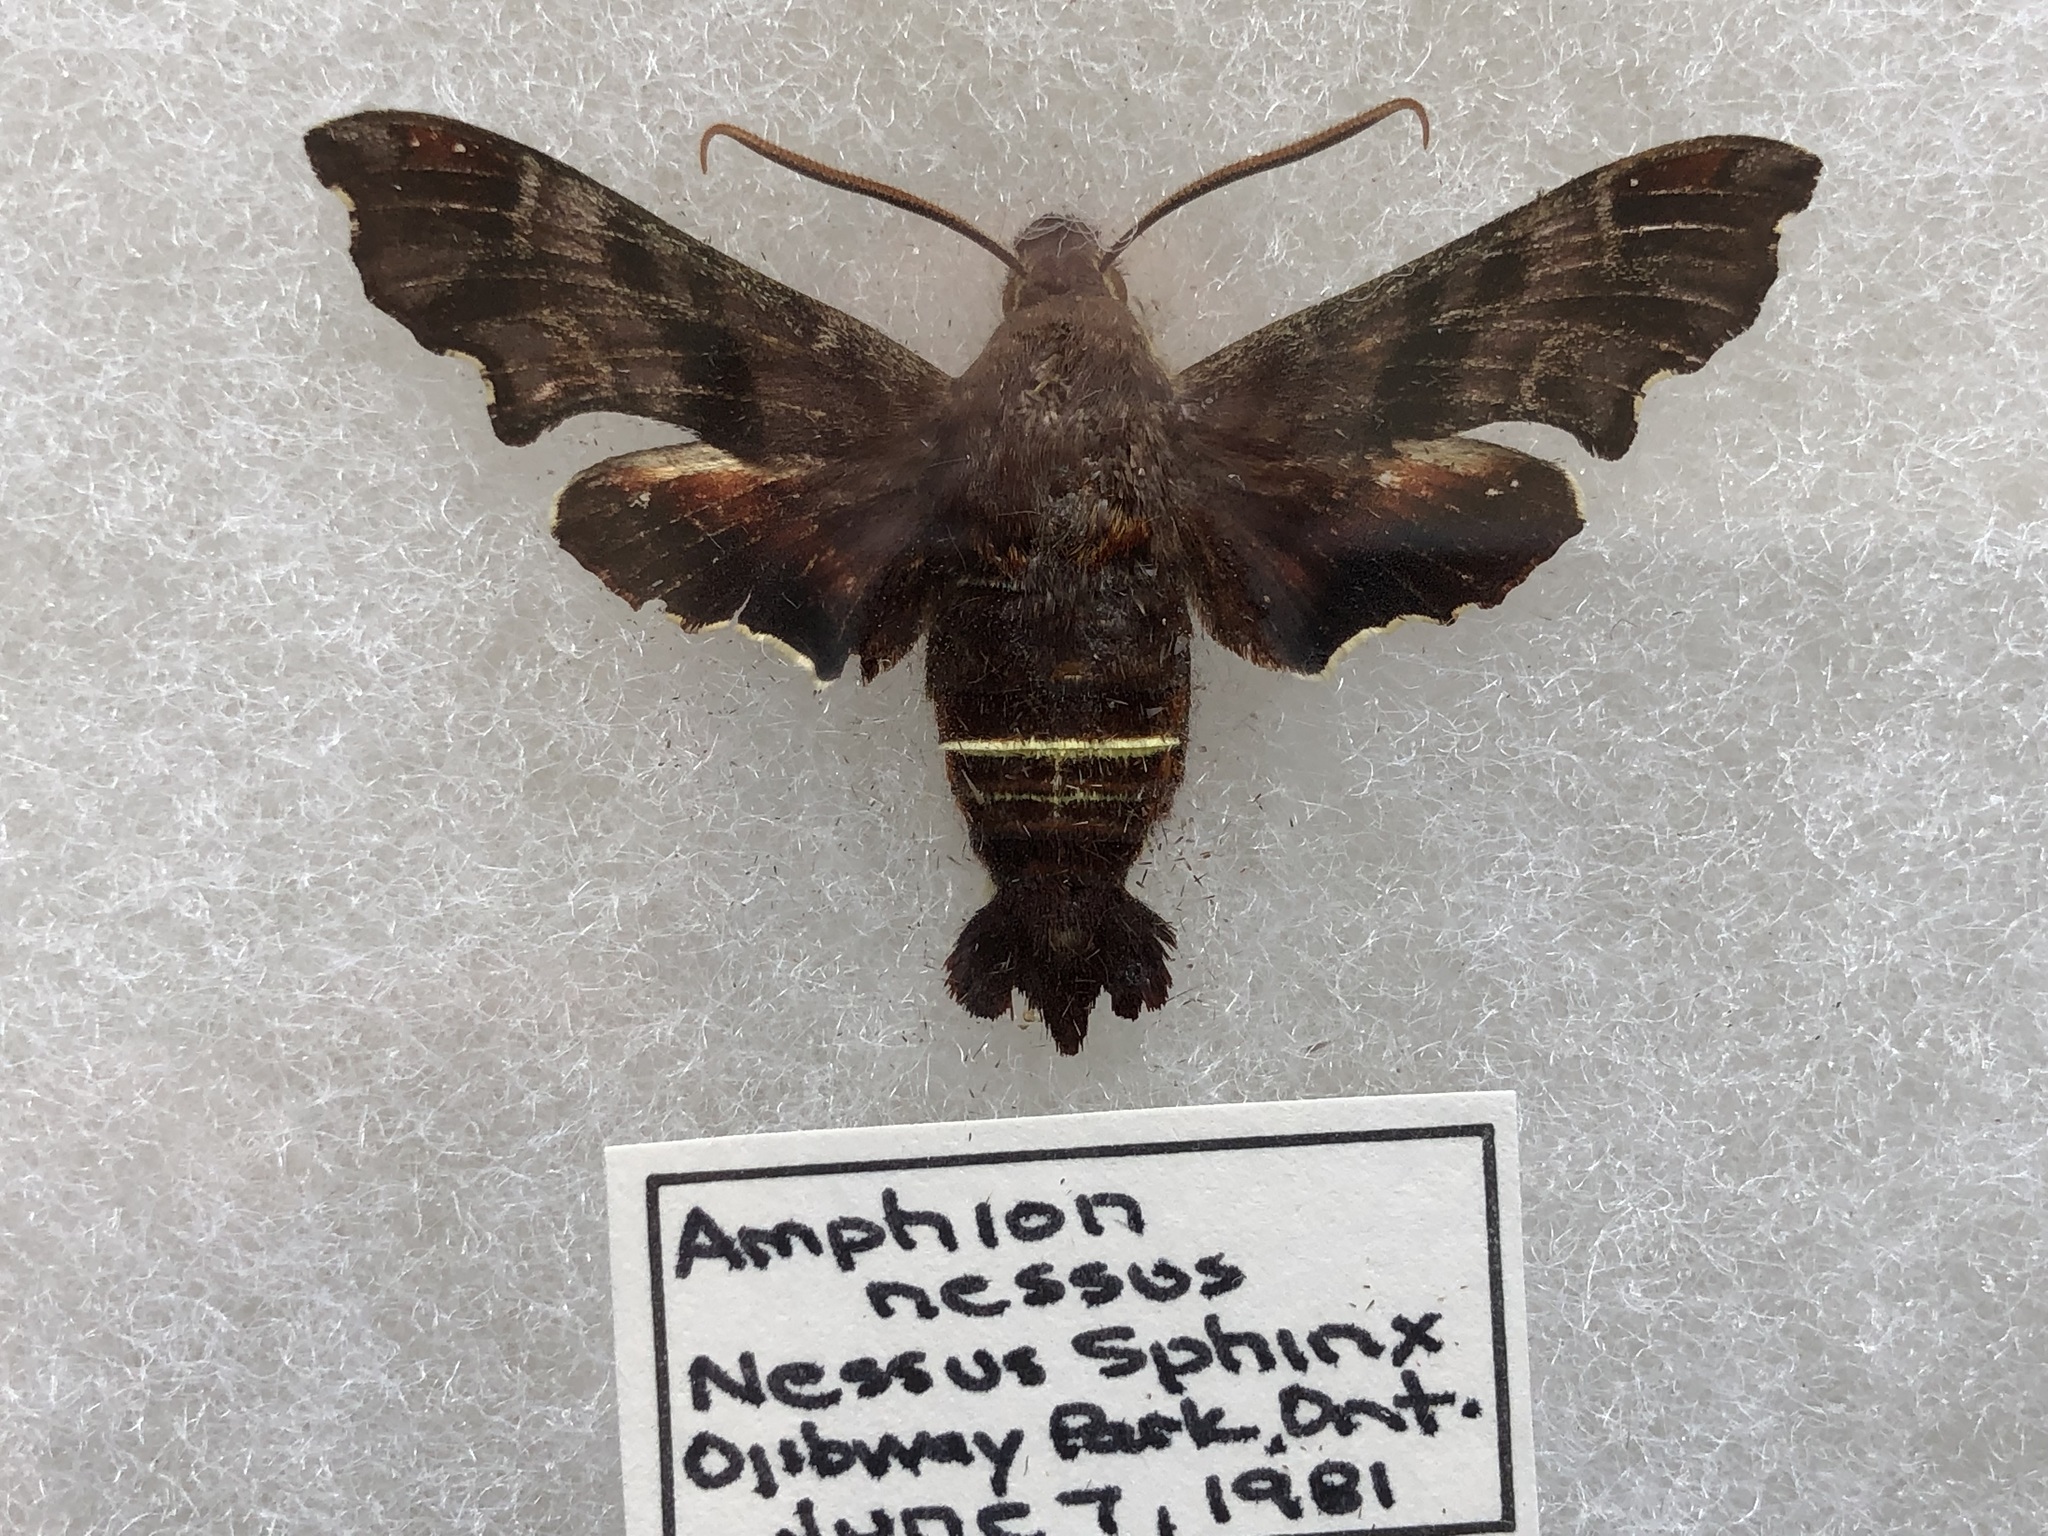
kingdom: Animalia
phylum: Arthropoda
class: Insecta
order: Lepidoptera
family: Sphingidae
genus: Amphion
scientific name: Amphion floridensis
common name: Nessus sphinx
